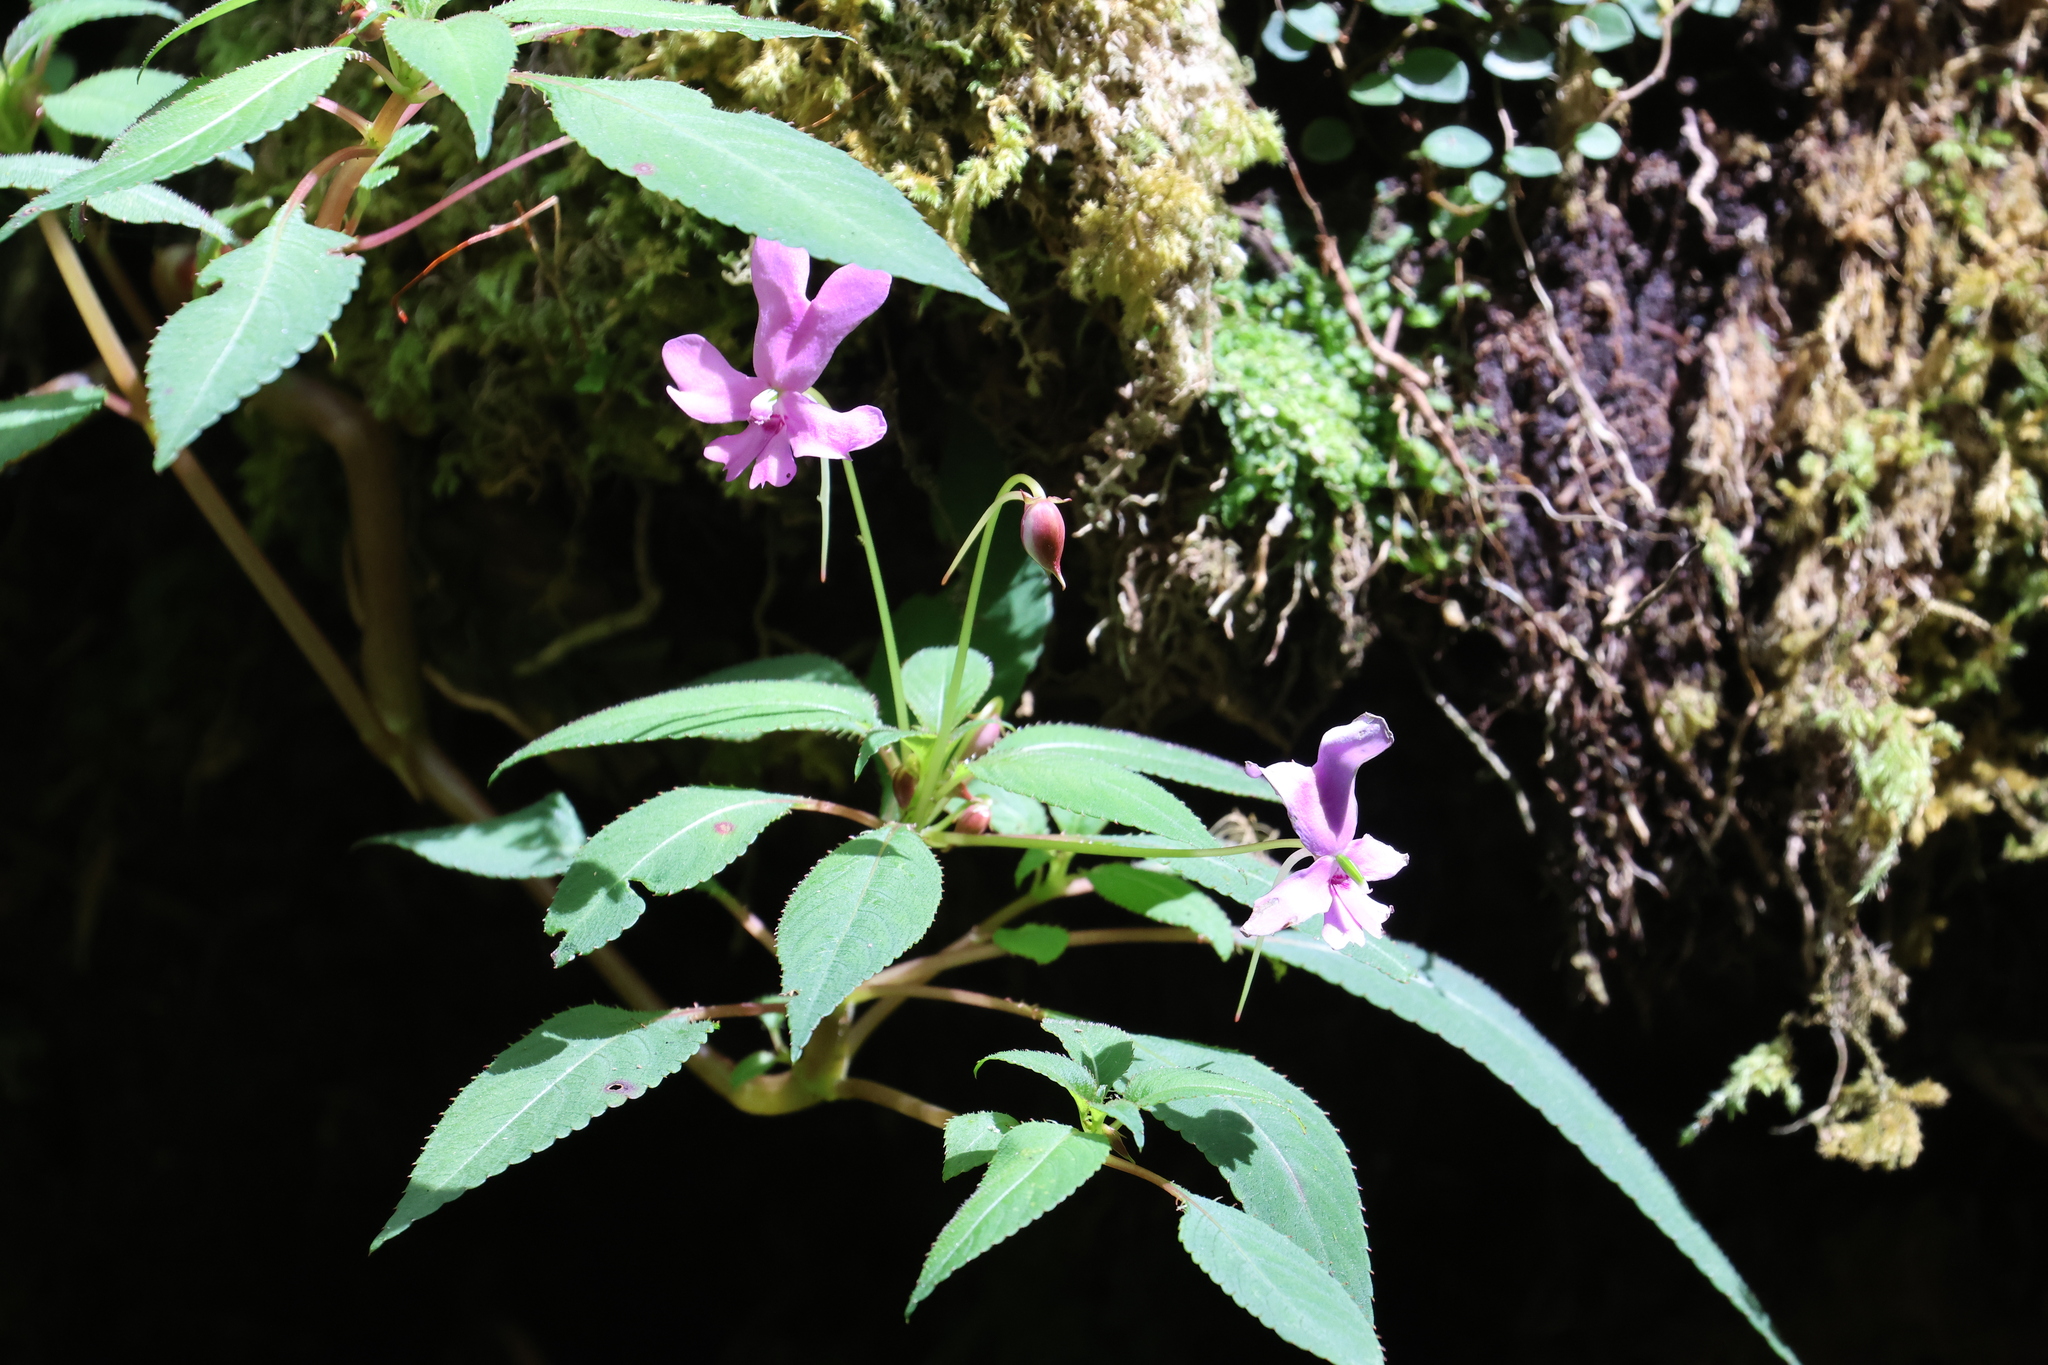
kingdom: Plantae
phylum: Tracheophyta
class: Magnoliopsida
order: Ericales
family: Balsaminaceae
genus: Impatiens
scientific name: Impatiens kinabaluensis
